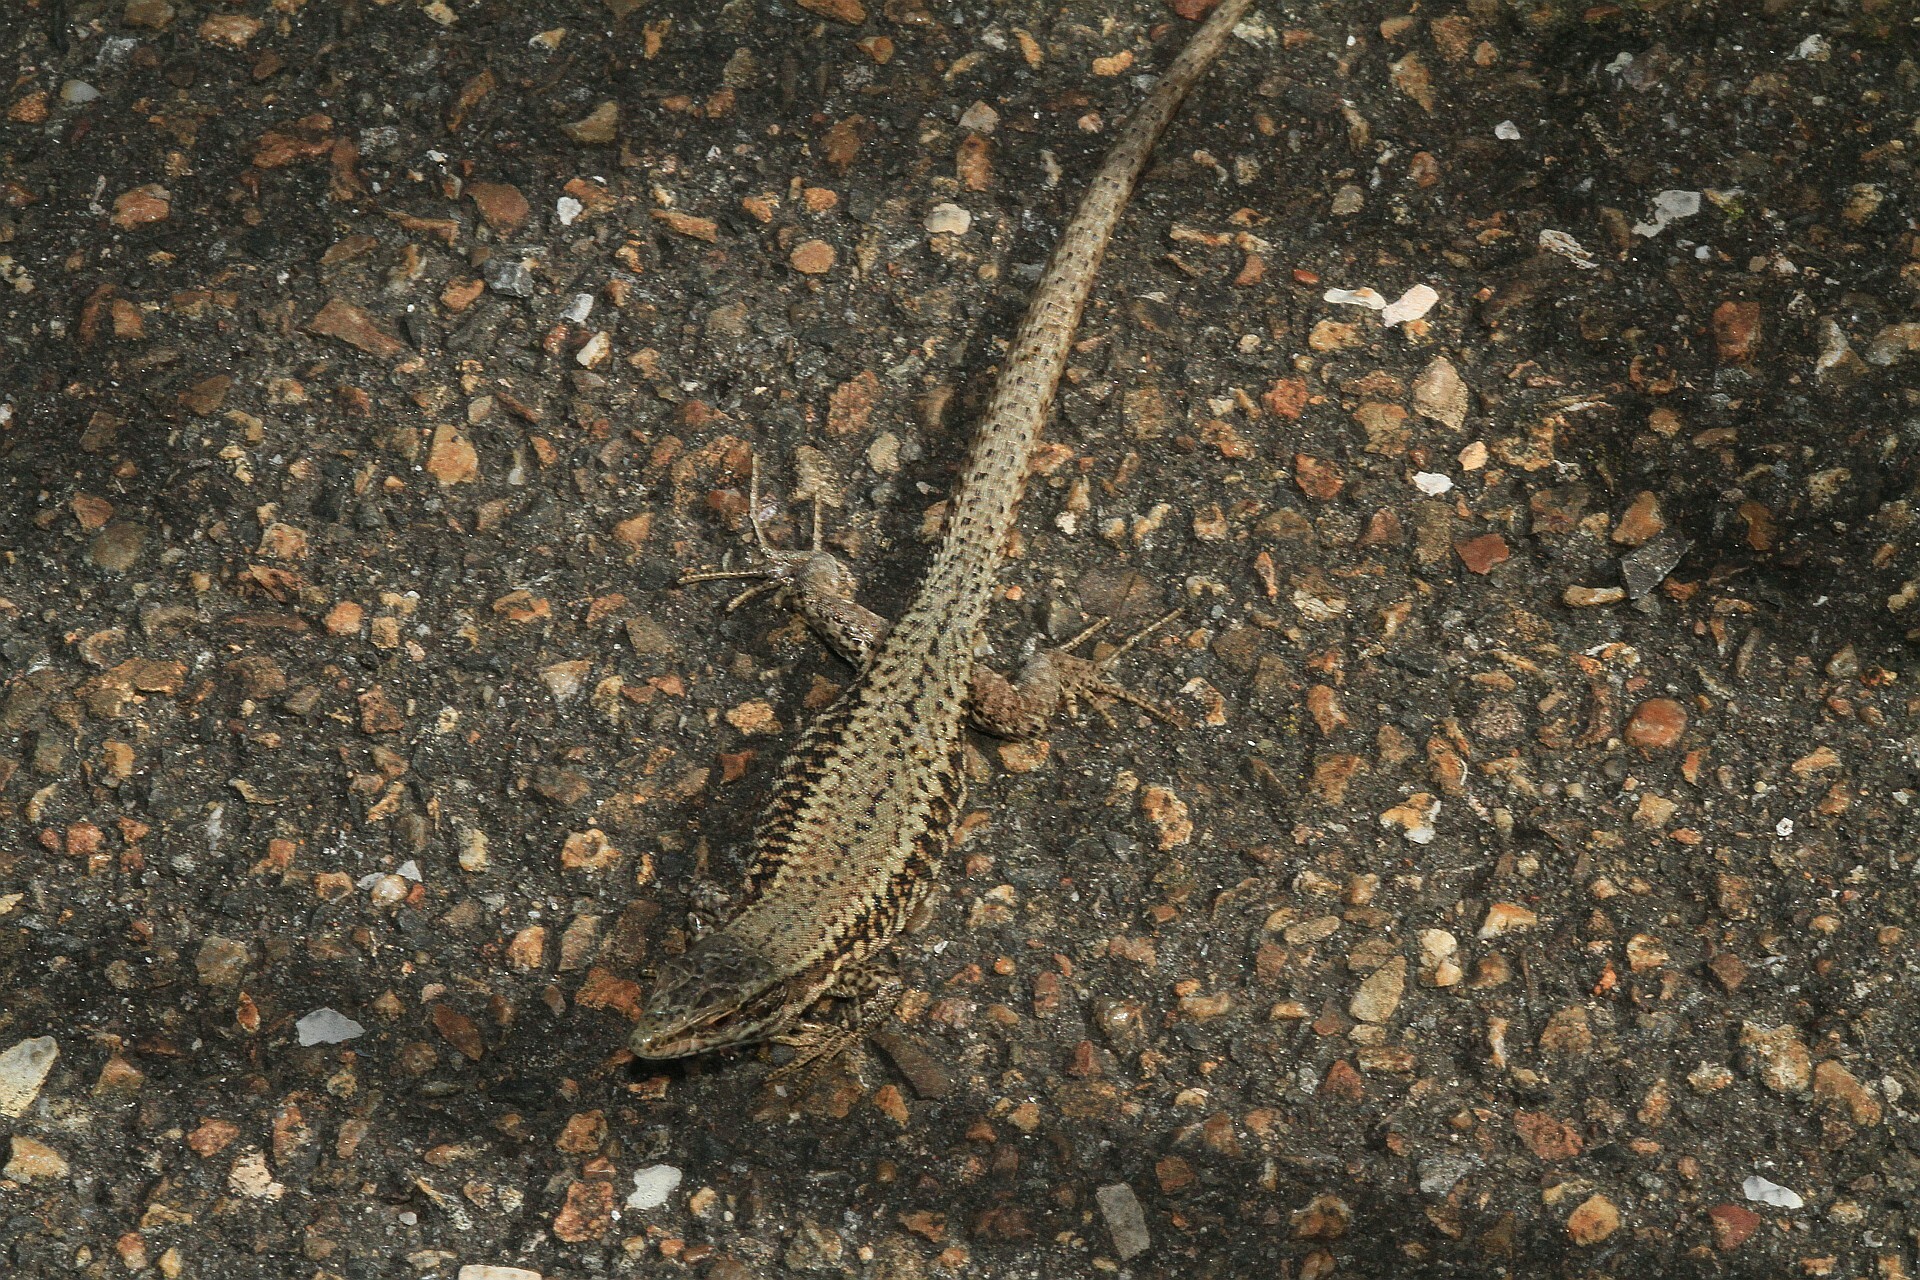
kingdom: Animalia
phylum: Chordata
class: Squamata
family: Lacertidae
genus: Podarcis
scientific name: Podarcis muralis
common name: Common wall lizard
